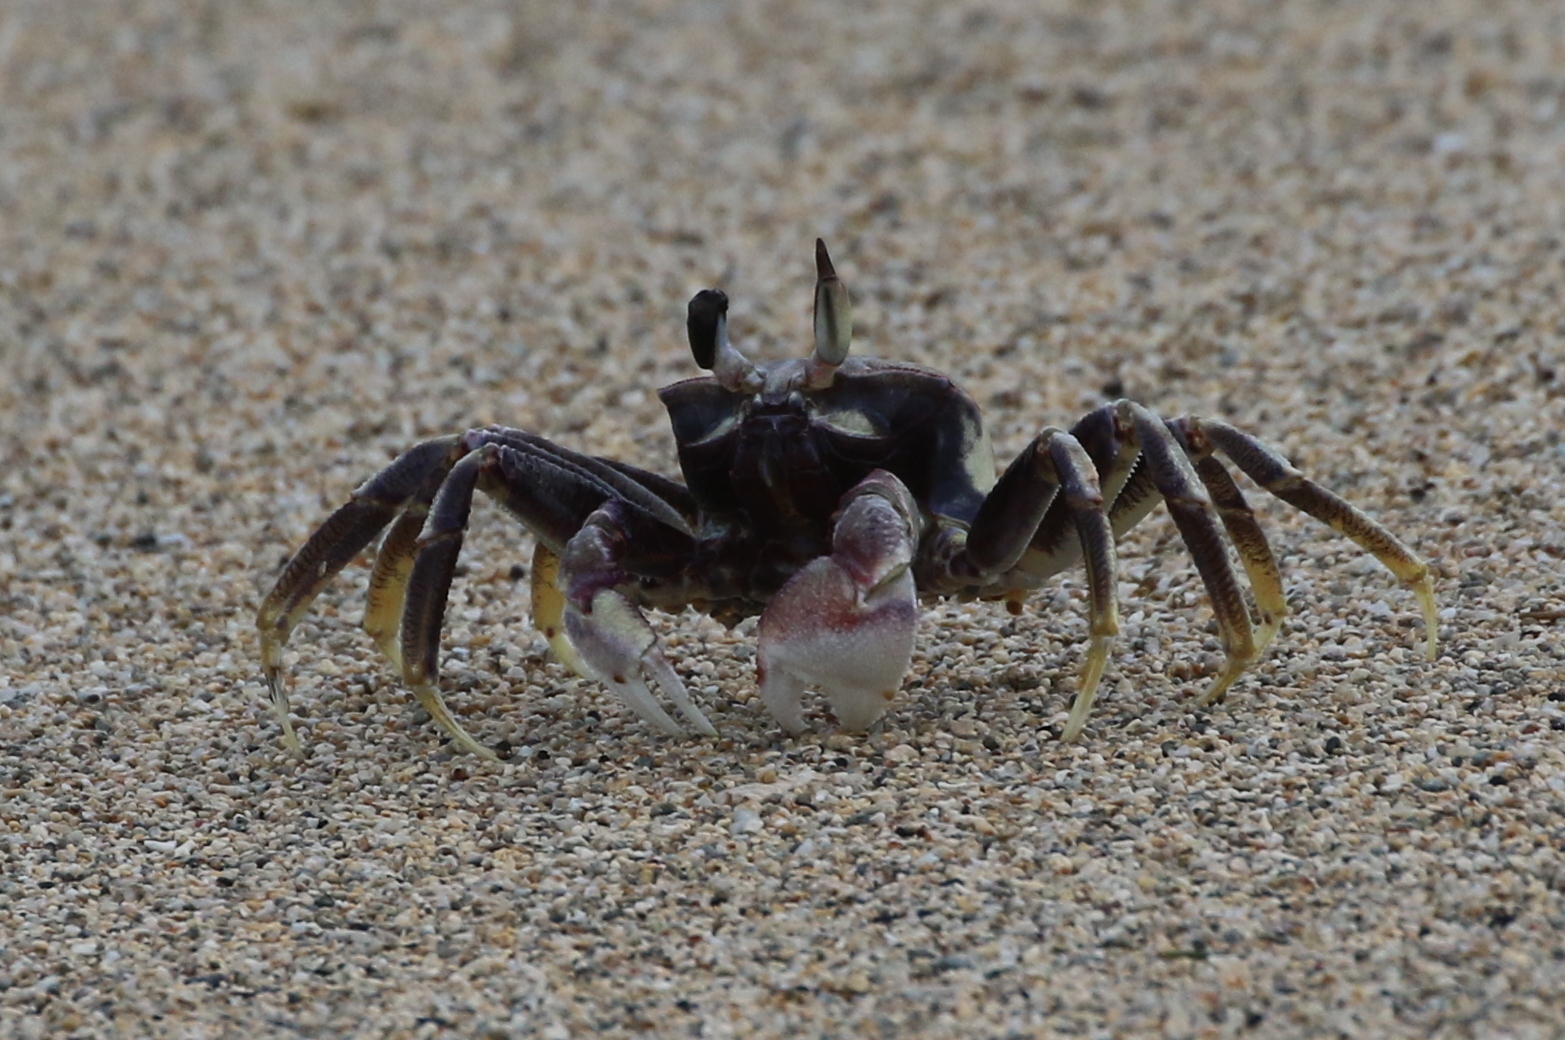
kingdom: Animalia
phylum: Arthropoda
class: Malacostraca
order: Decapoda
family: Ocypodidae
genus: Ocypode
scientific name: Ocypode ceratophthalmus
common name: Indo-pacific ghost crab
